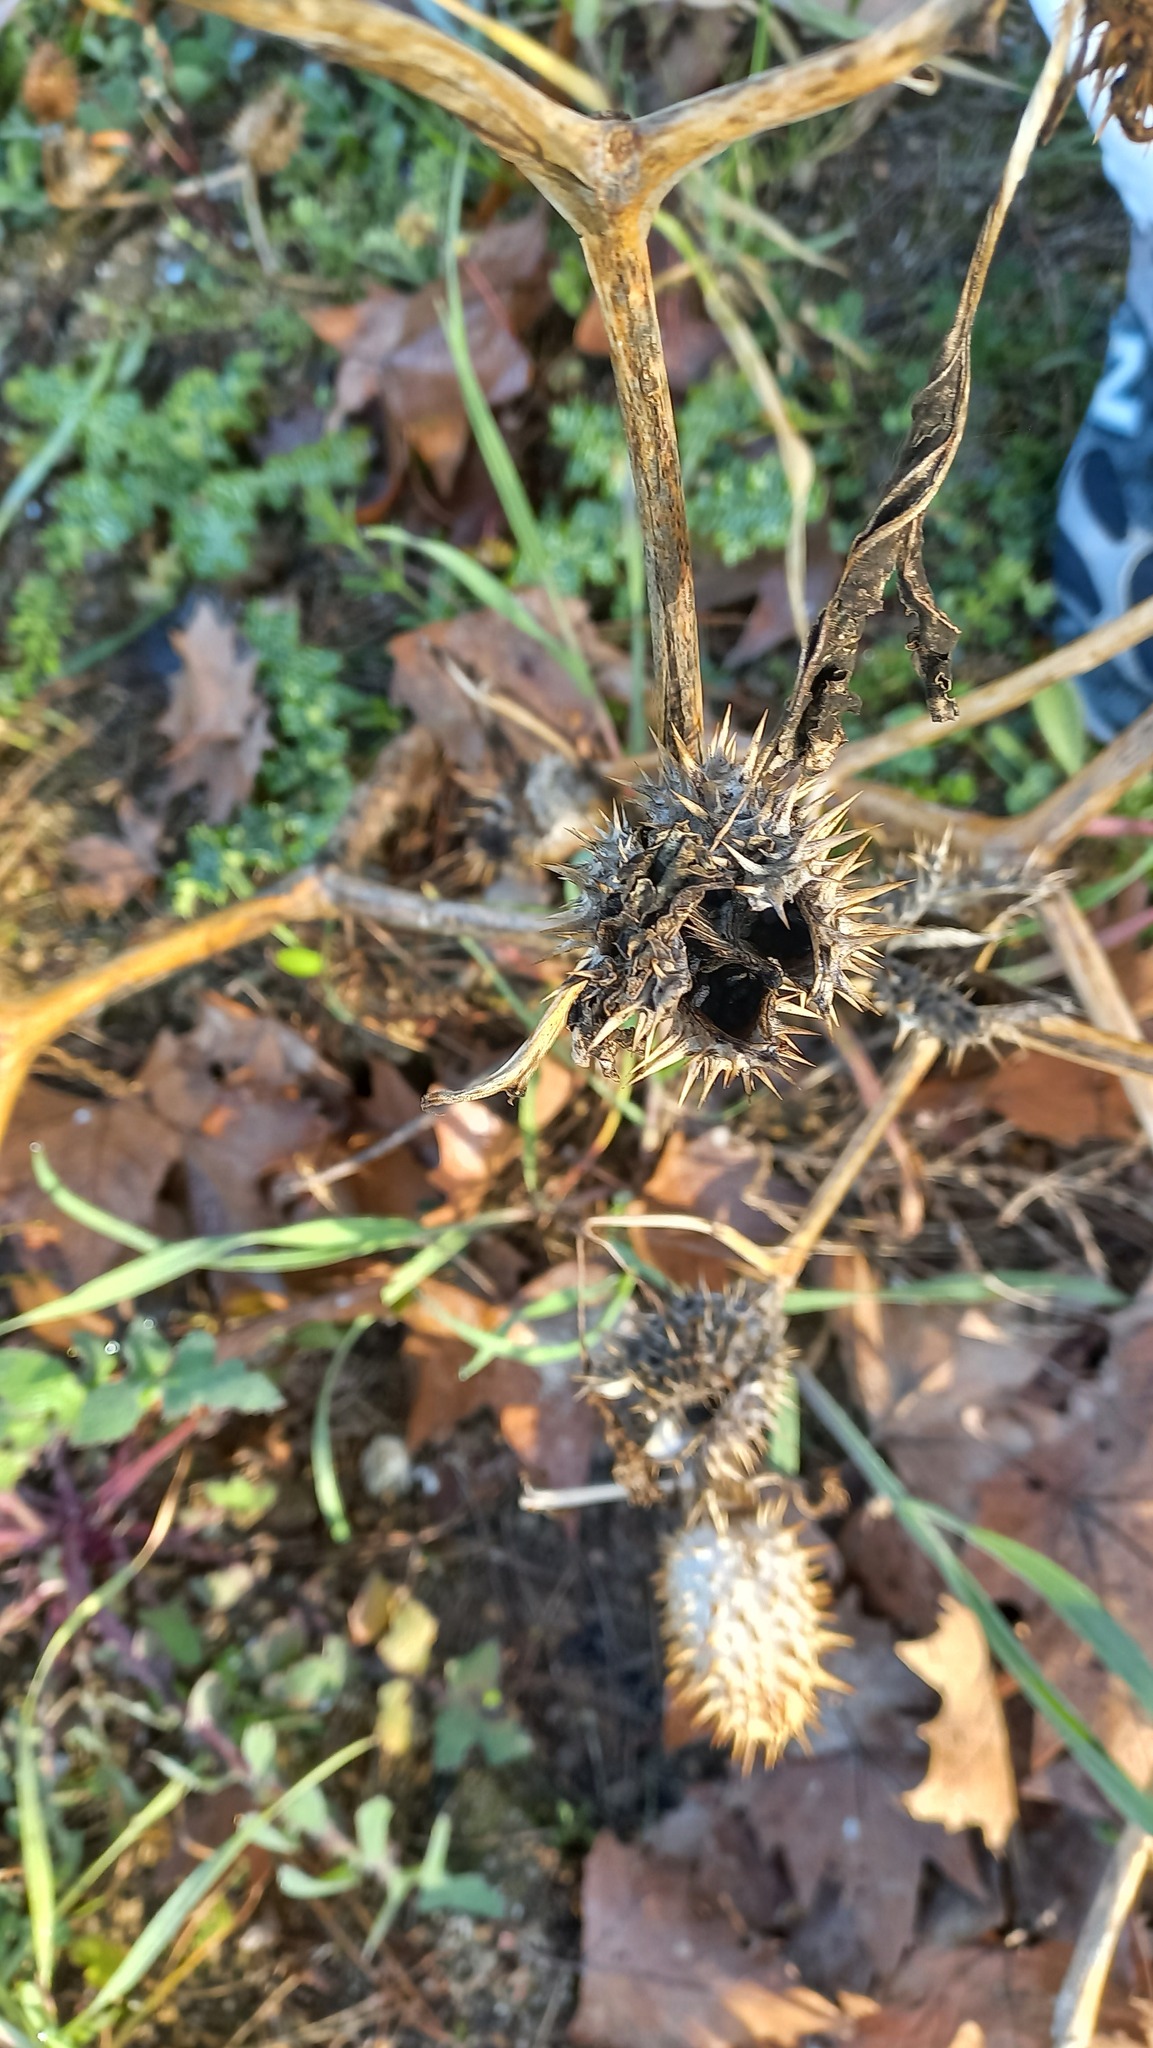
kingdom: Plantae
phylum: Tracheophyta
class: Magnoliopsida
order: Solanales
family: Solanaceae
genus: Datura
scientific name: Datura stramonium
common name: Thorn-apple
